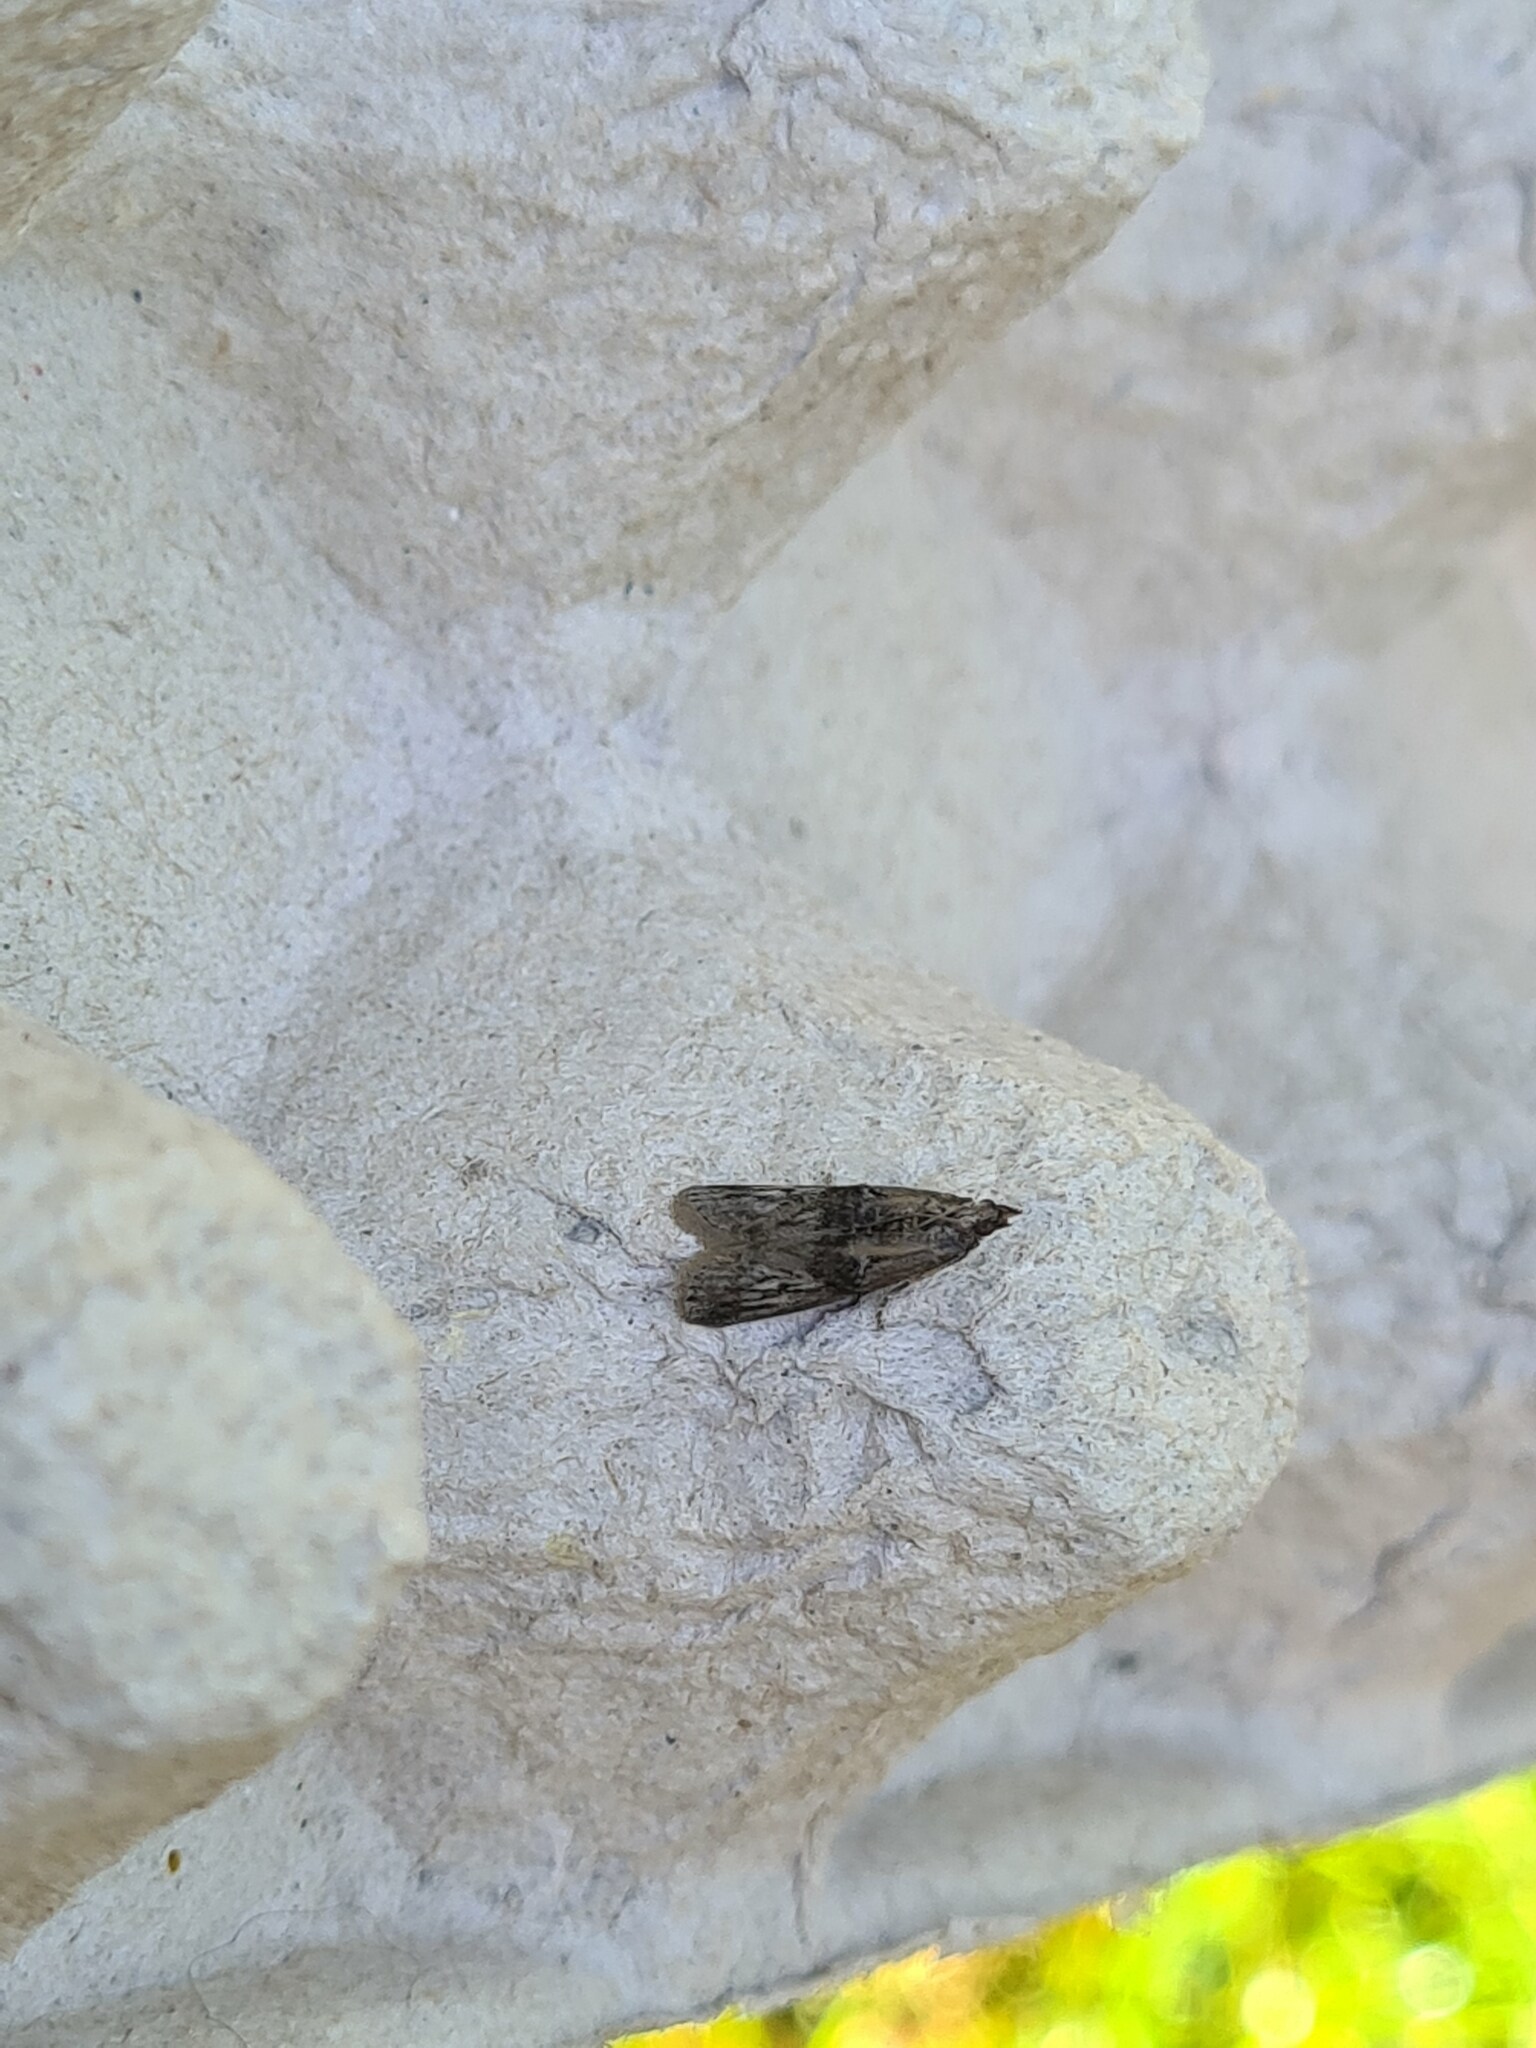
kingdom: Animalia
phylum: Arthropoda
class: Insecta
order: Lepidoptera
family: Pyralidae
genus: Nephopterix
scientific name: Nephopterix angustella
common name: Spindle knot-horn
